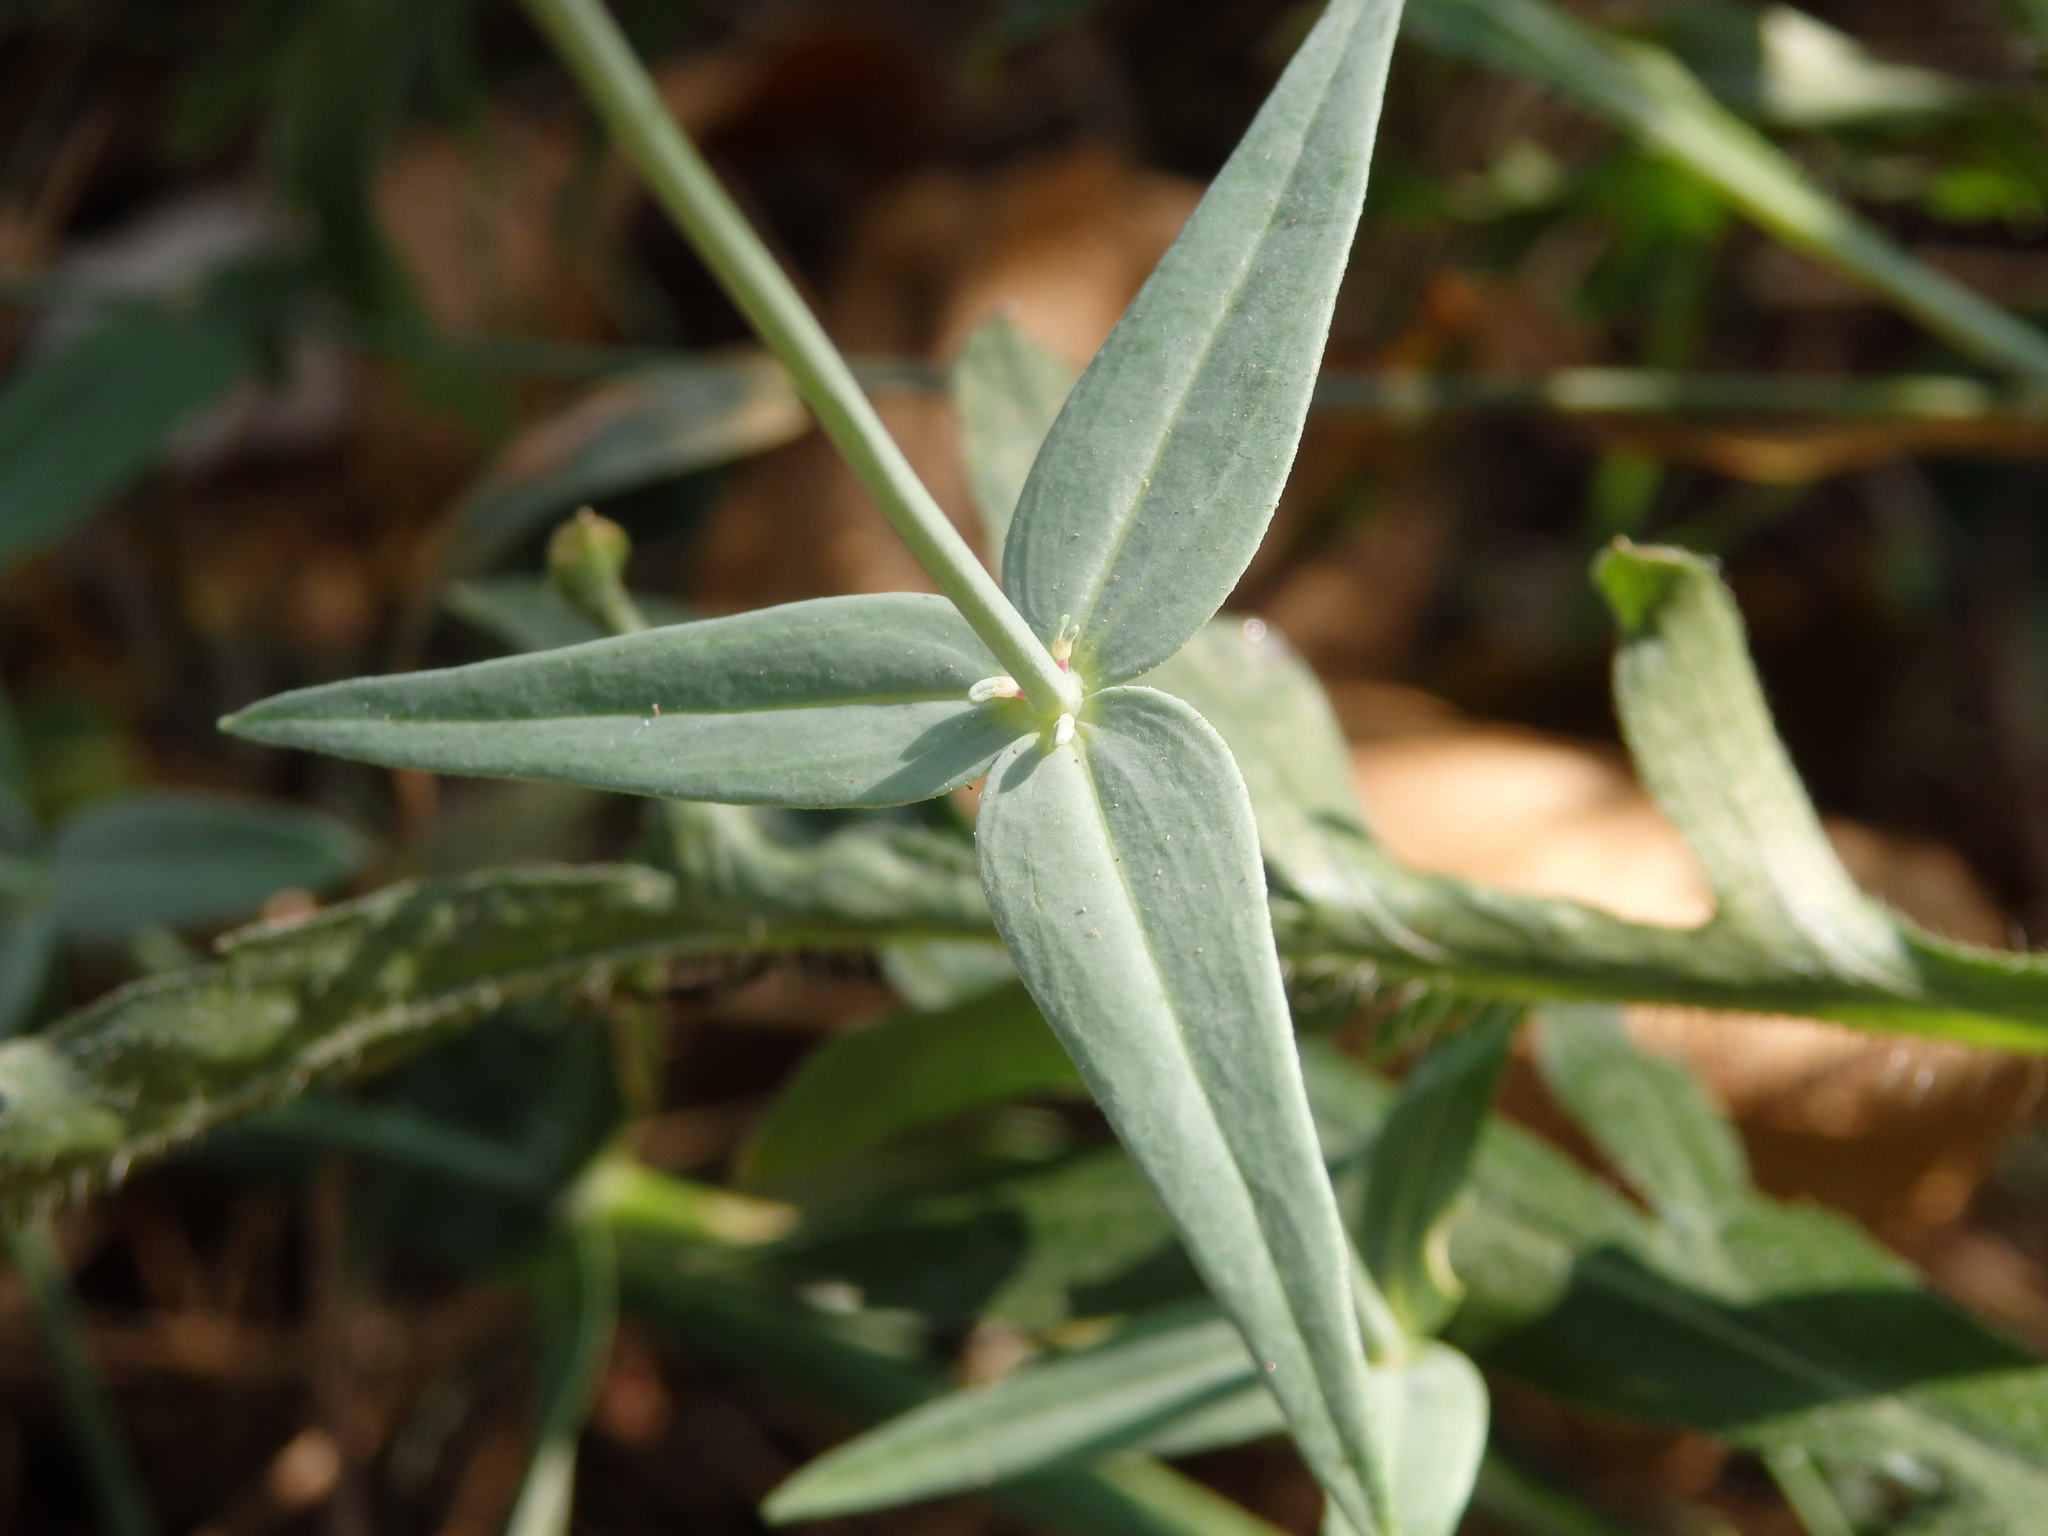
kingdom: Plantae
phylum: Tracheophyta
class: Magnoliopsida
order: Lamiales
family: Plantaginaceae
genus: Linaria
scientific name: Linaria triornithophora
